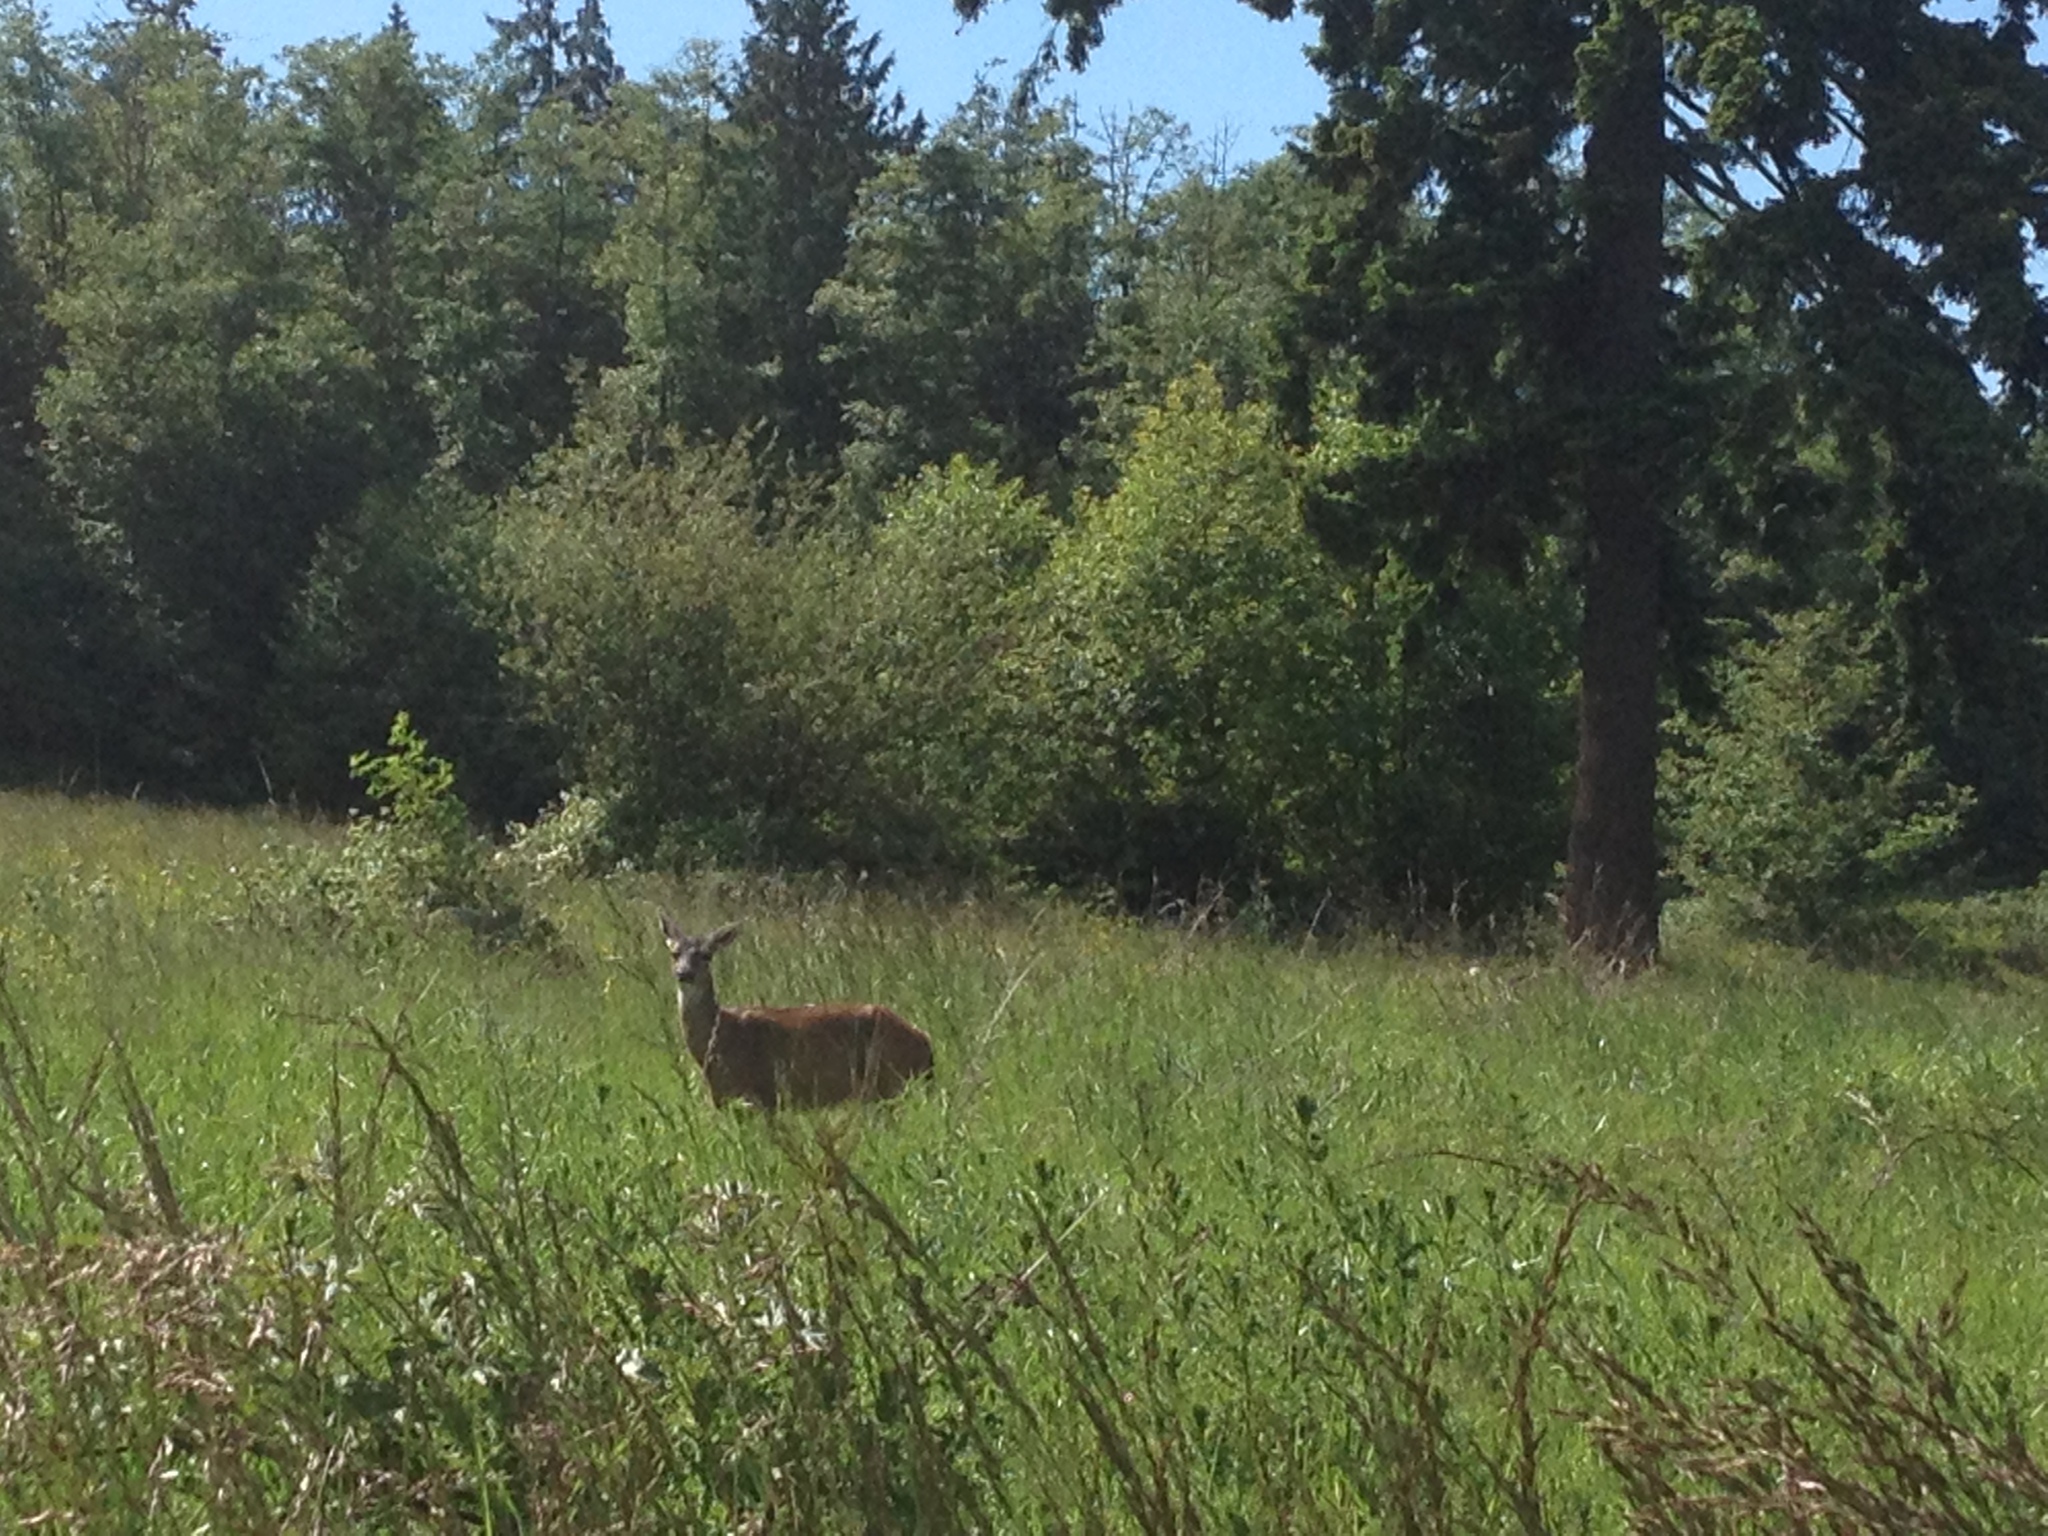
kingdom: Animalia
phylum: Chordata
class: Mammalia
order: Artiodactyla
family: Cervidae
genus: Odocoileus
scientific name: Odocoileus hemionus
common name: Mule deer
